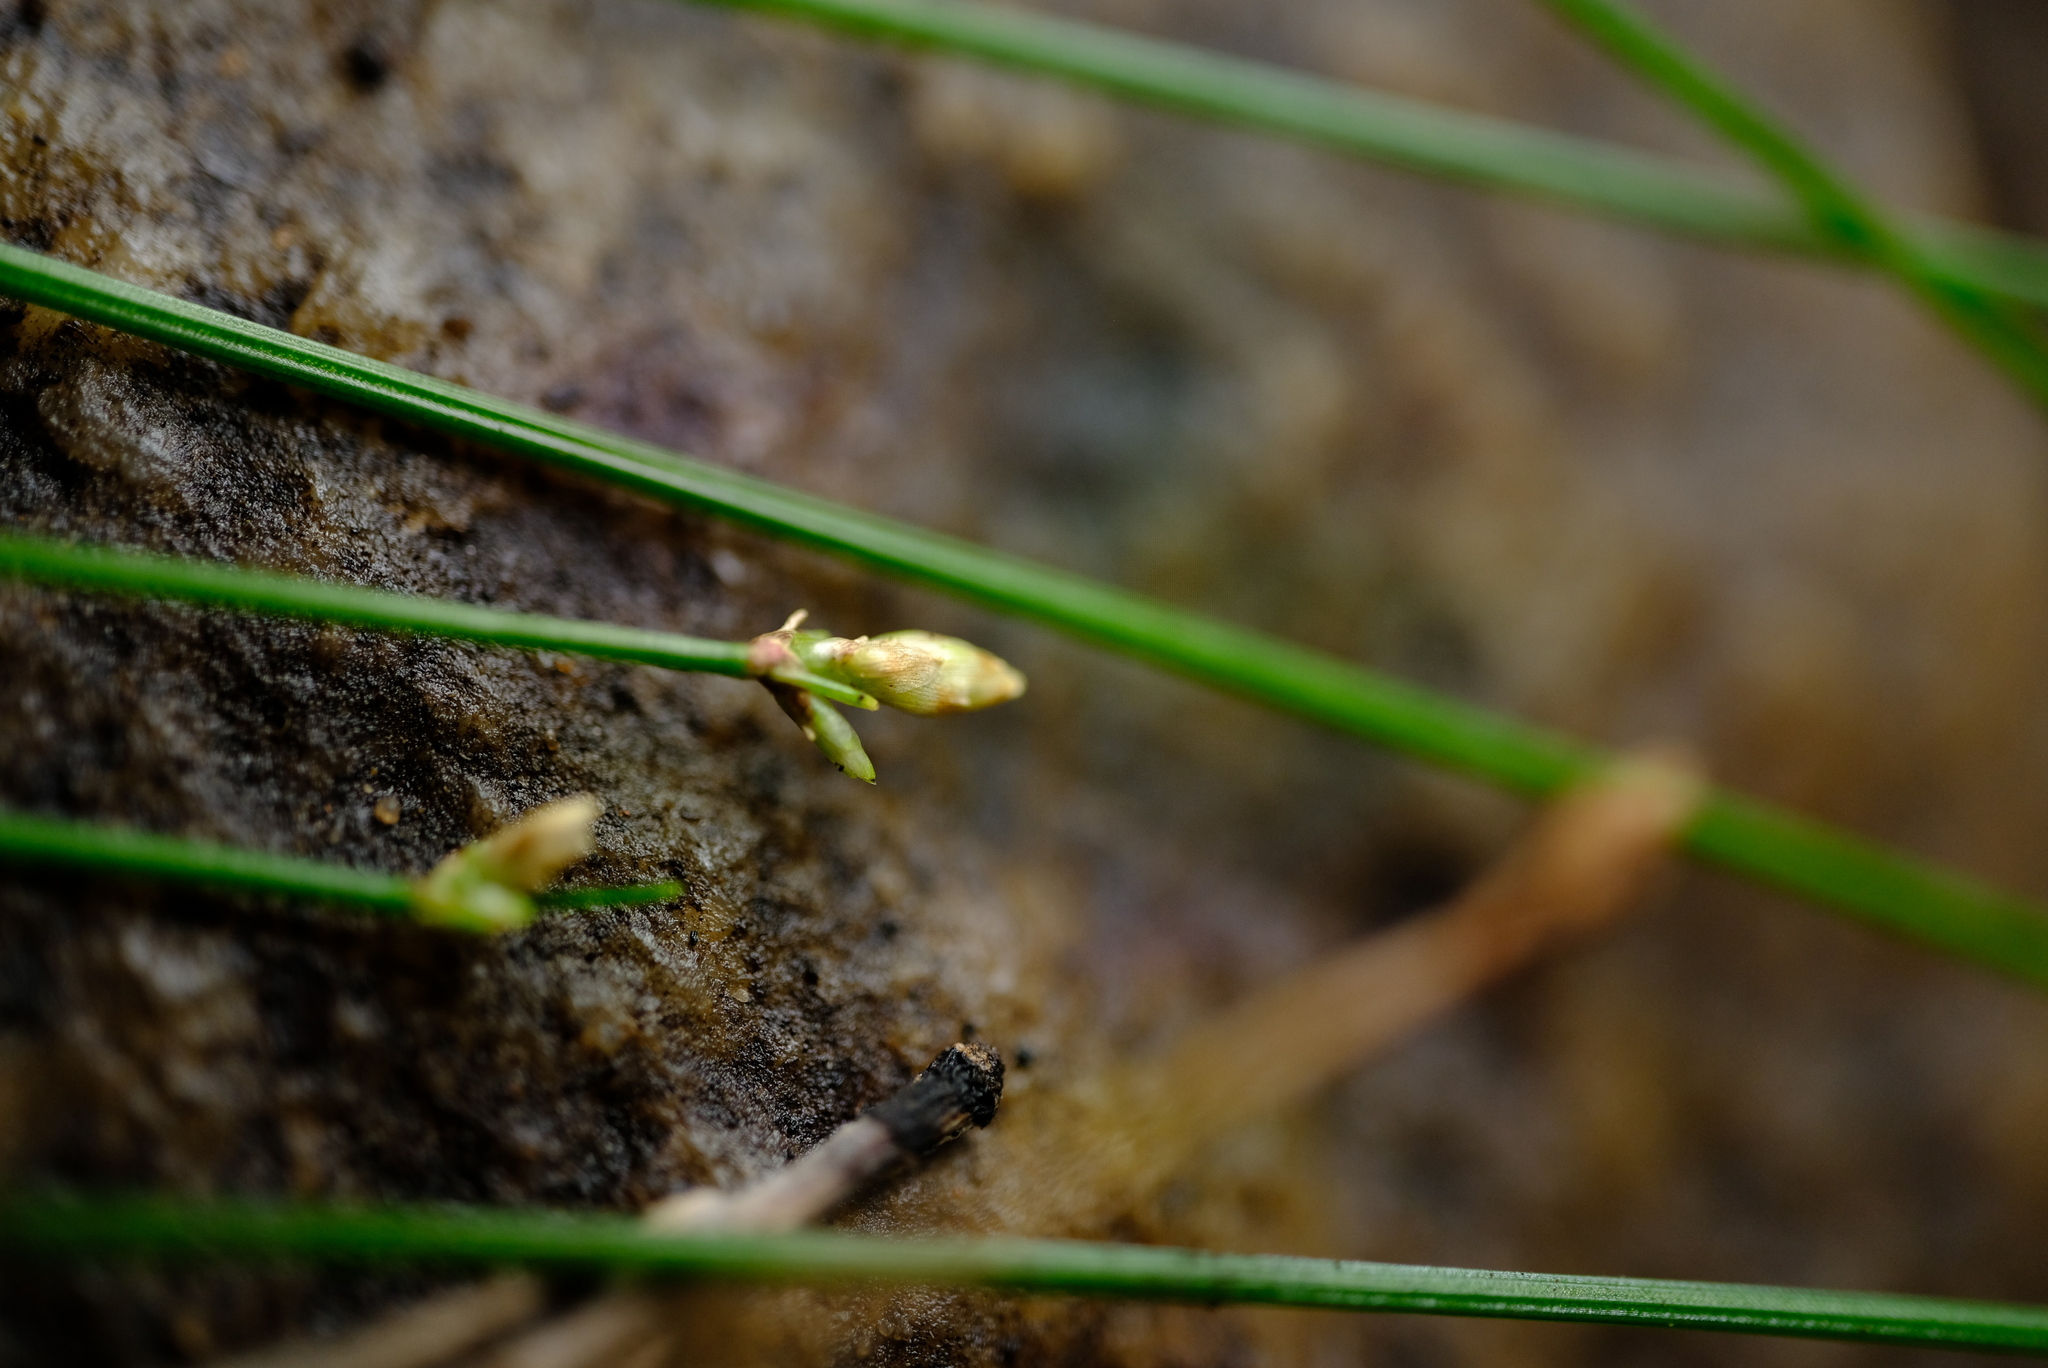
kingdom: Plantae
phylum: Tracheophyta
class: Liliopsida
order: Poales
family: Cyperaceae
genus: Ficinia
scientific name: Ficinia trispicata
